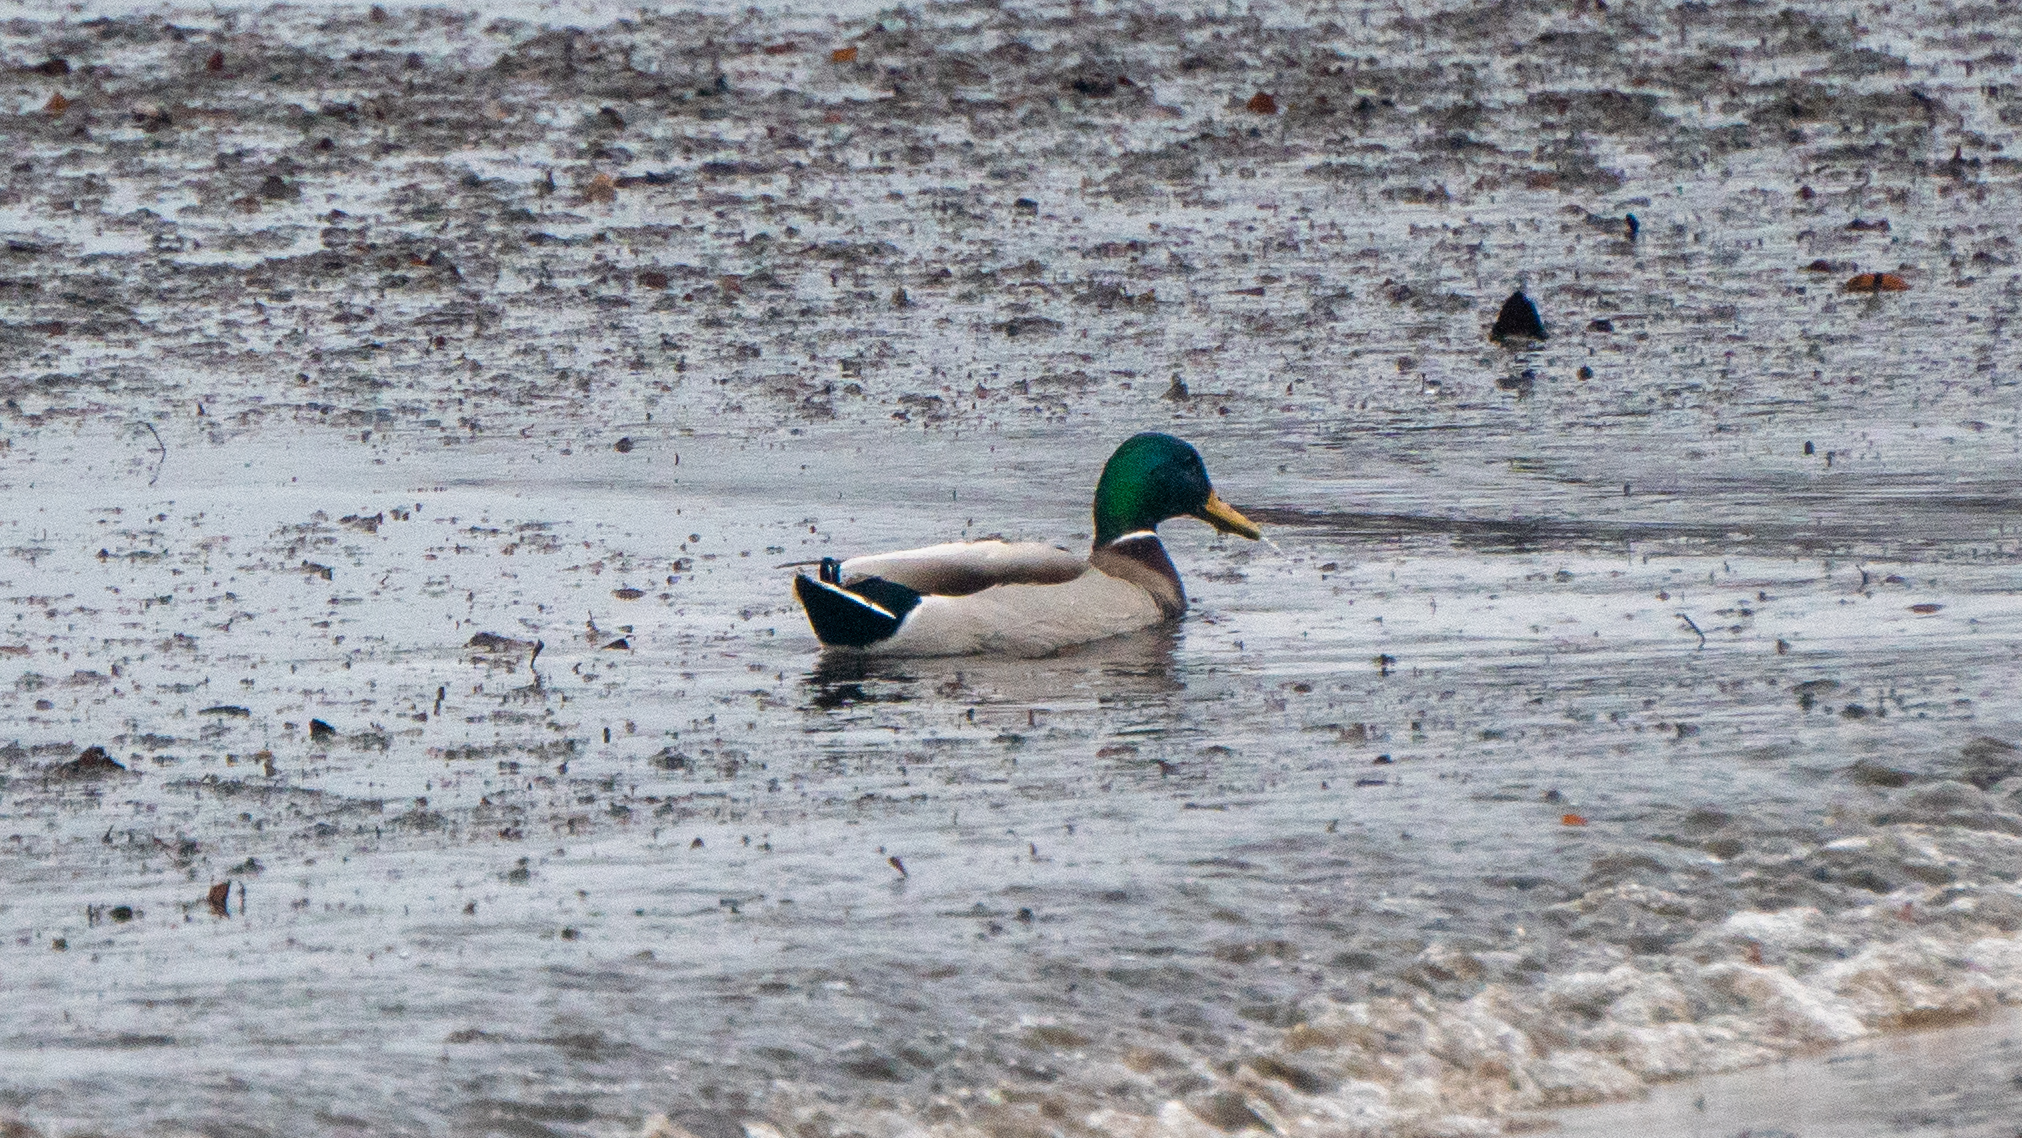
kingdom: Animalia
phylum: Chordata
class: Aves
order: Anseriformes
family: Anatidae
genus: Anas
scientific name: Anas platyrhynchos
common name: Mallard
